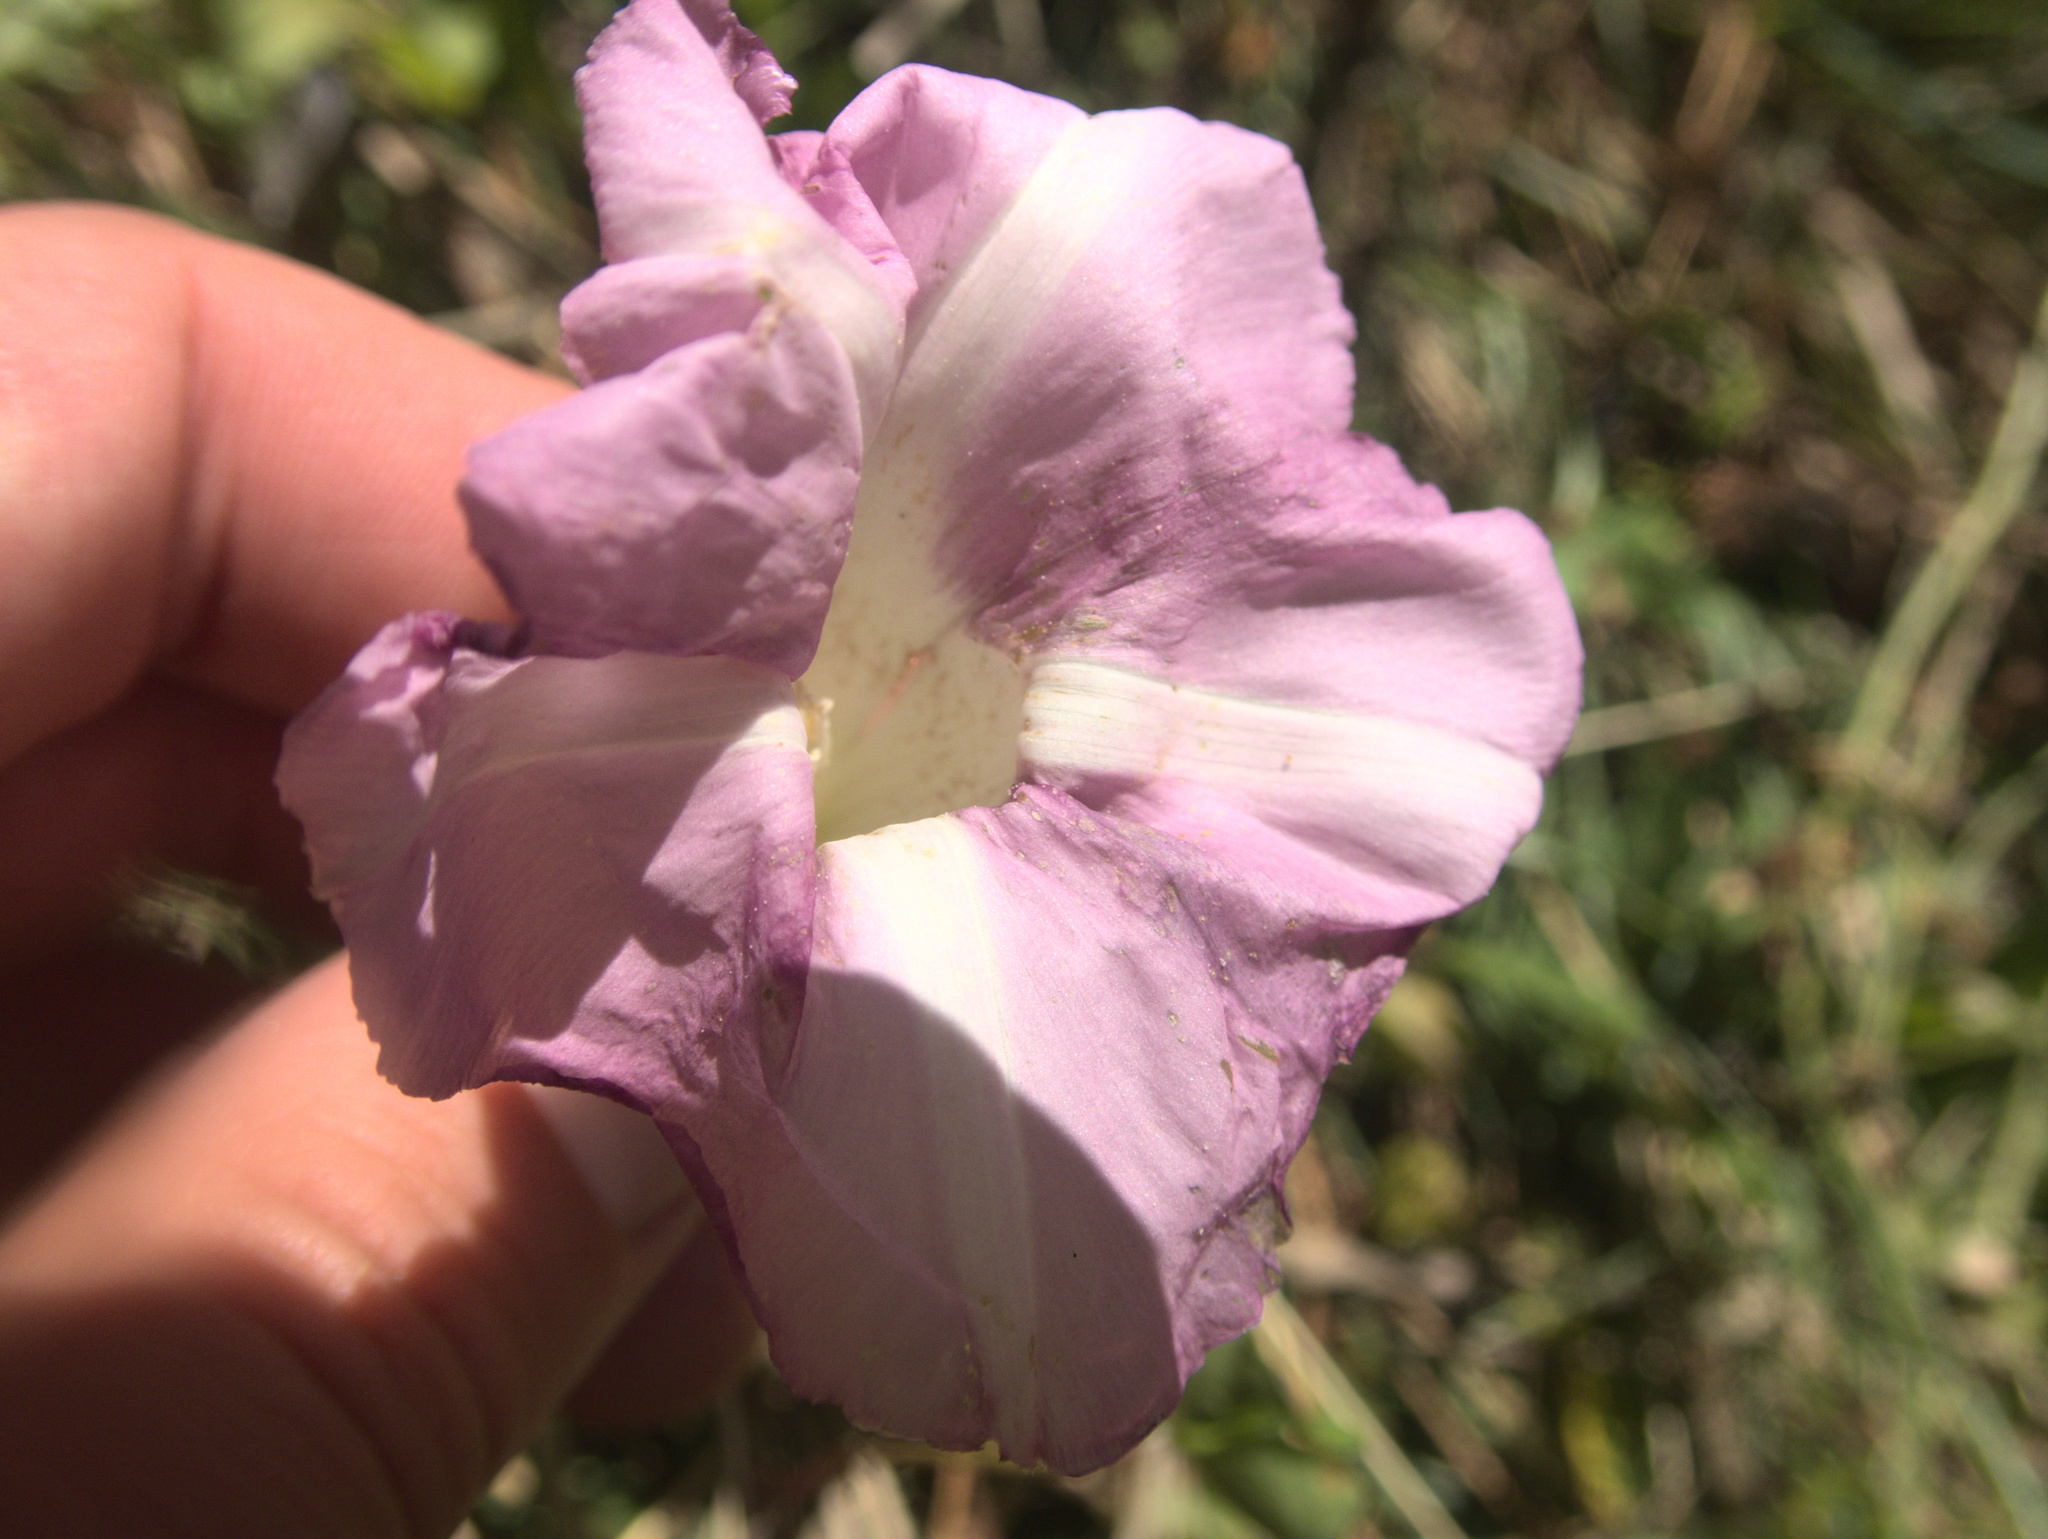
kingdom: Plantae
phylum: Tracheophyta
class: Magnoliopsida
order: Solanales
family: Convolvulaceae
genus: Calystegia
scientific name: Calystegia sepium
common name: Hedge bindweed
